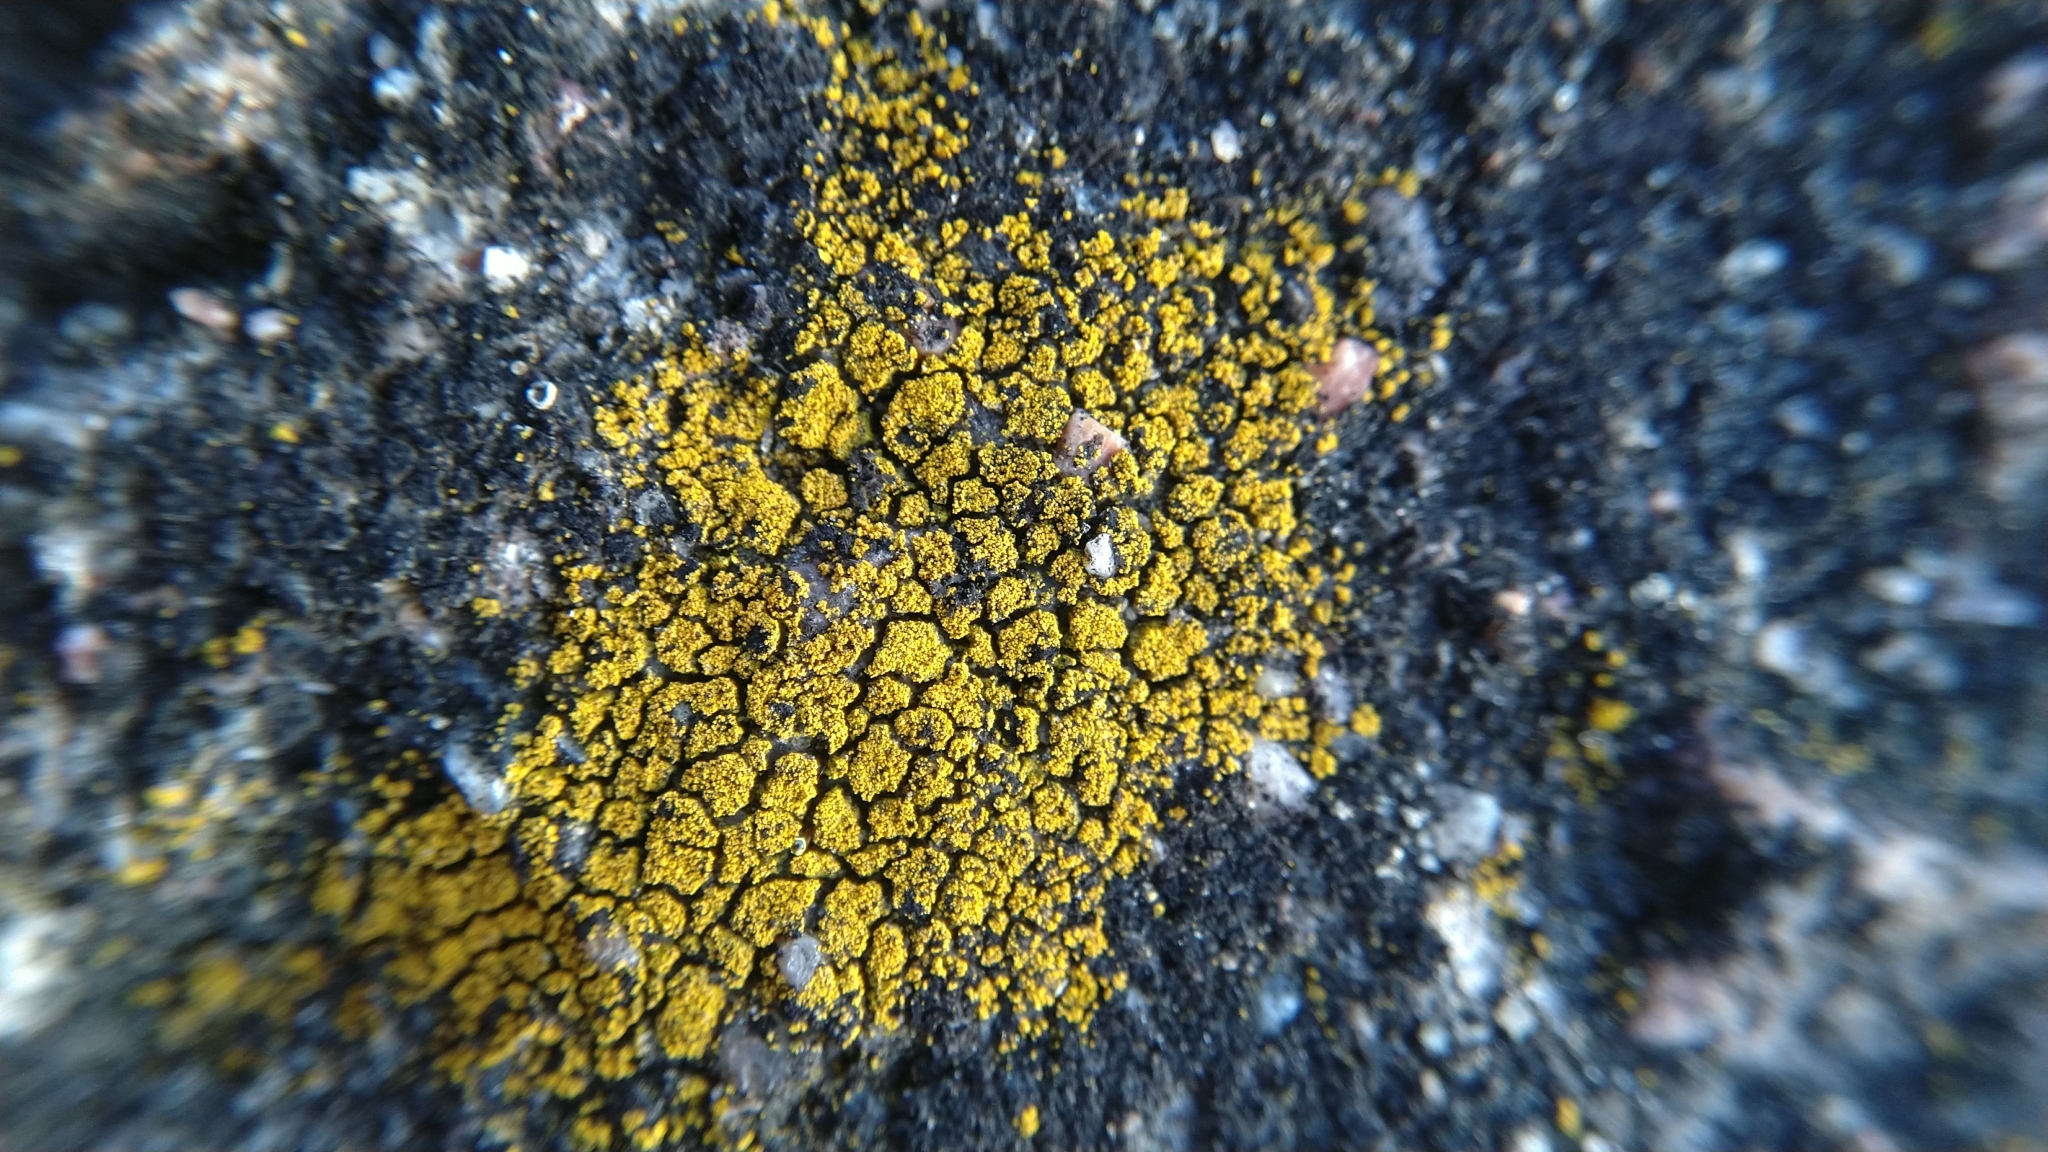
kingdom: Fungi
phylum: Ascomycota
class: Candelariomycetes
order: Candelariales
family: Candelariaceae
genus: Candelariella
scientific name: Candelariella coralliza
